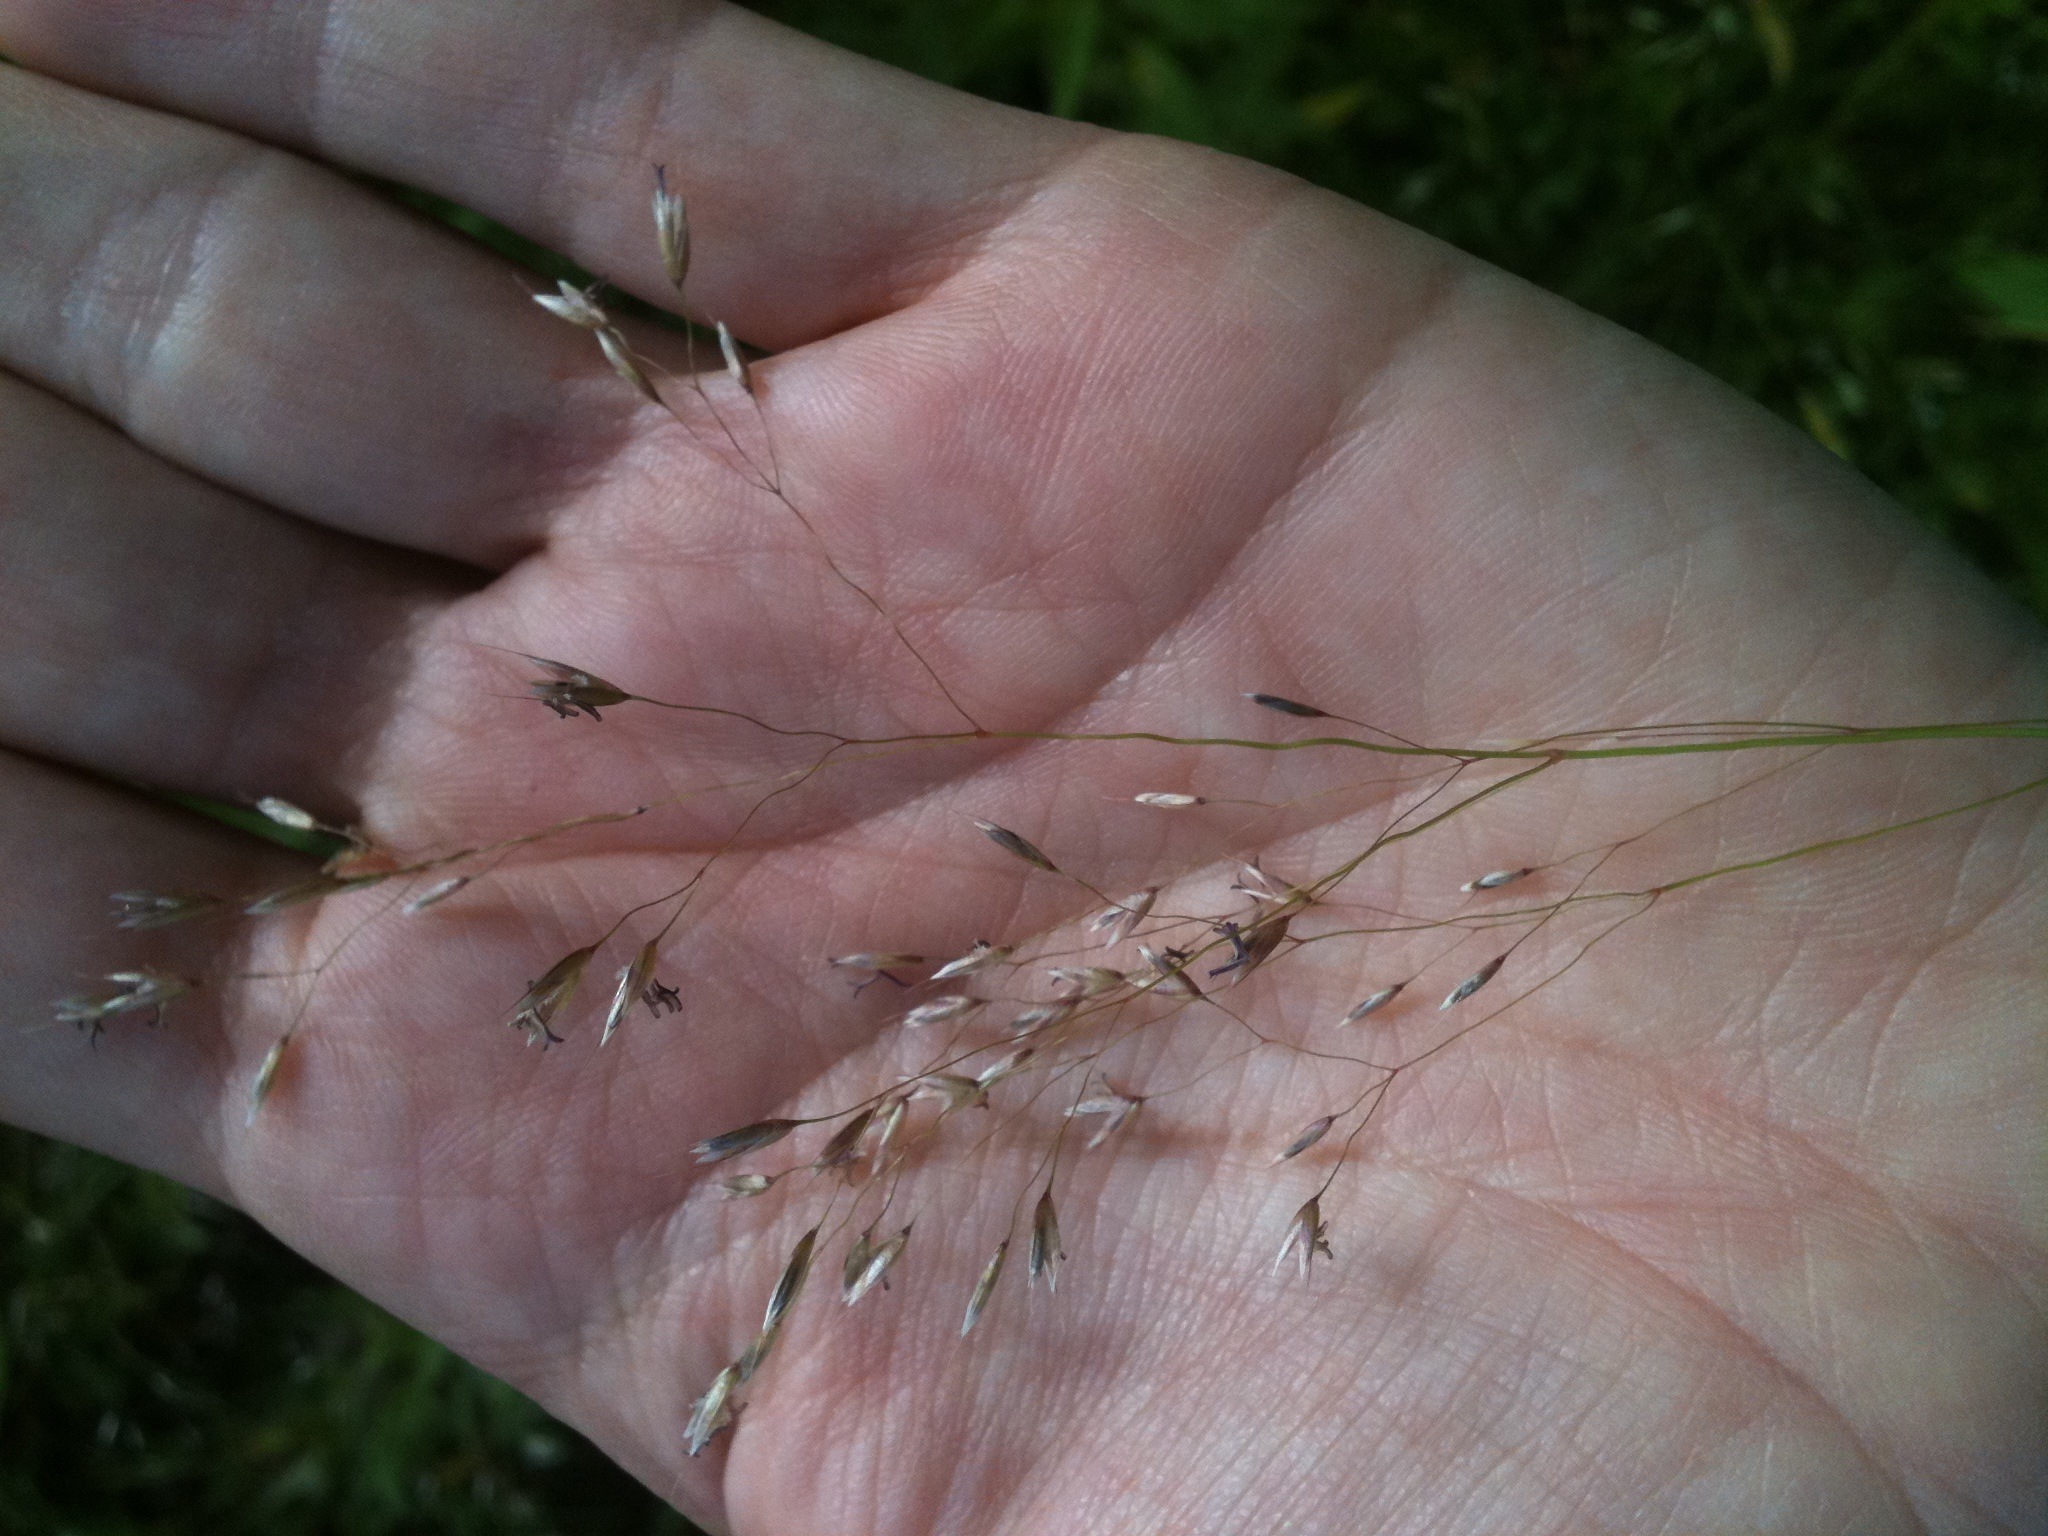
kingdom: Plantae
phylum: Tracheophyta
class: Liliopsida
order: Poales
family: Poaceae
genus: Avenella
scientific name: Avenella flexuosa
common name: Wavy hairgrass
